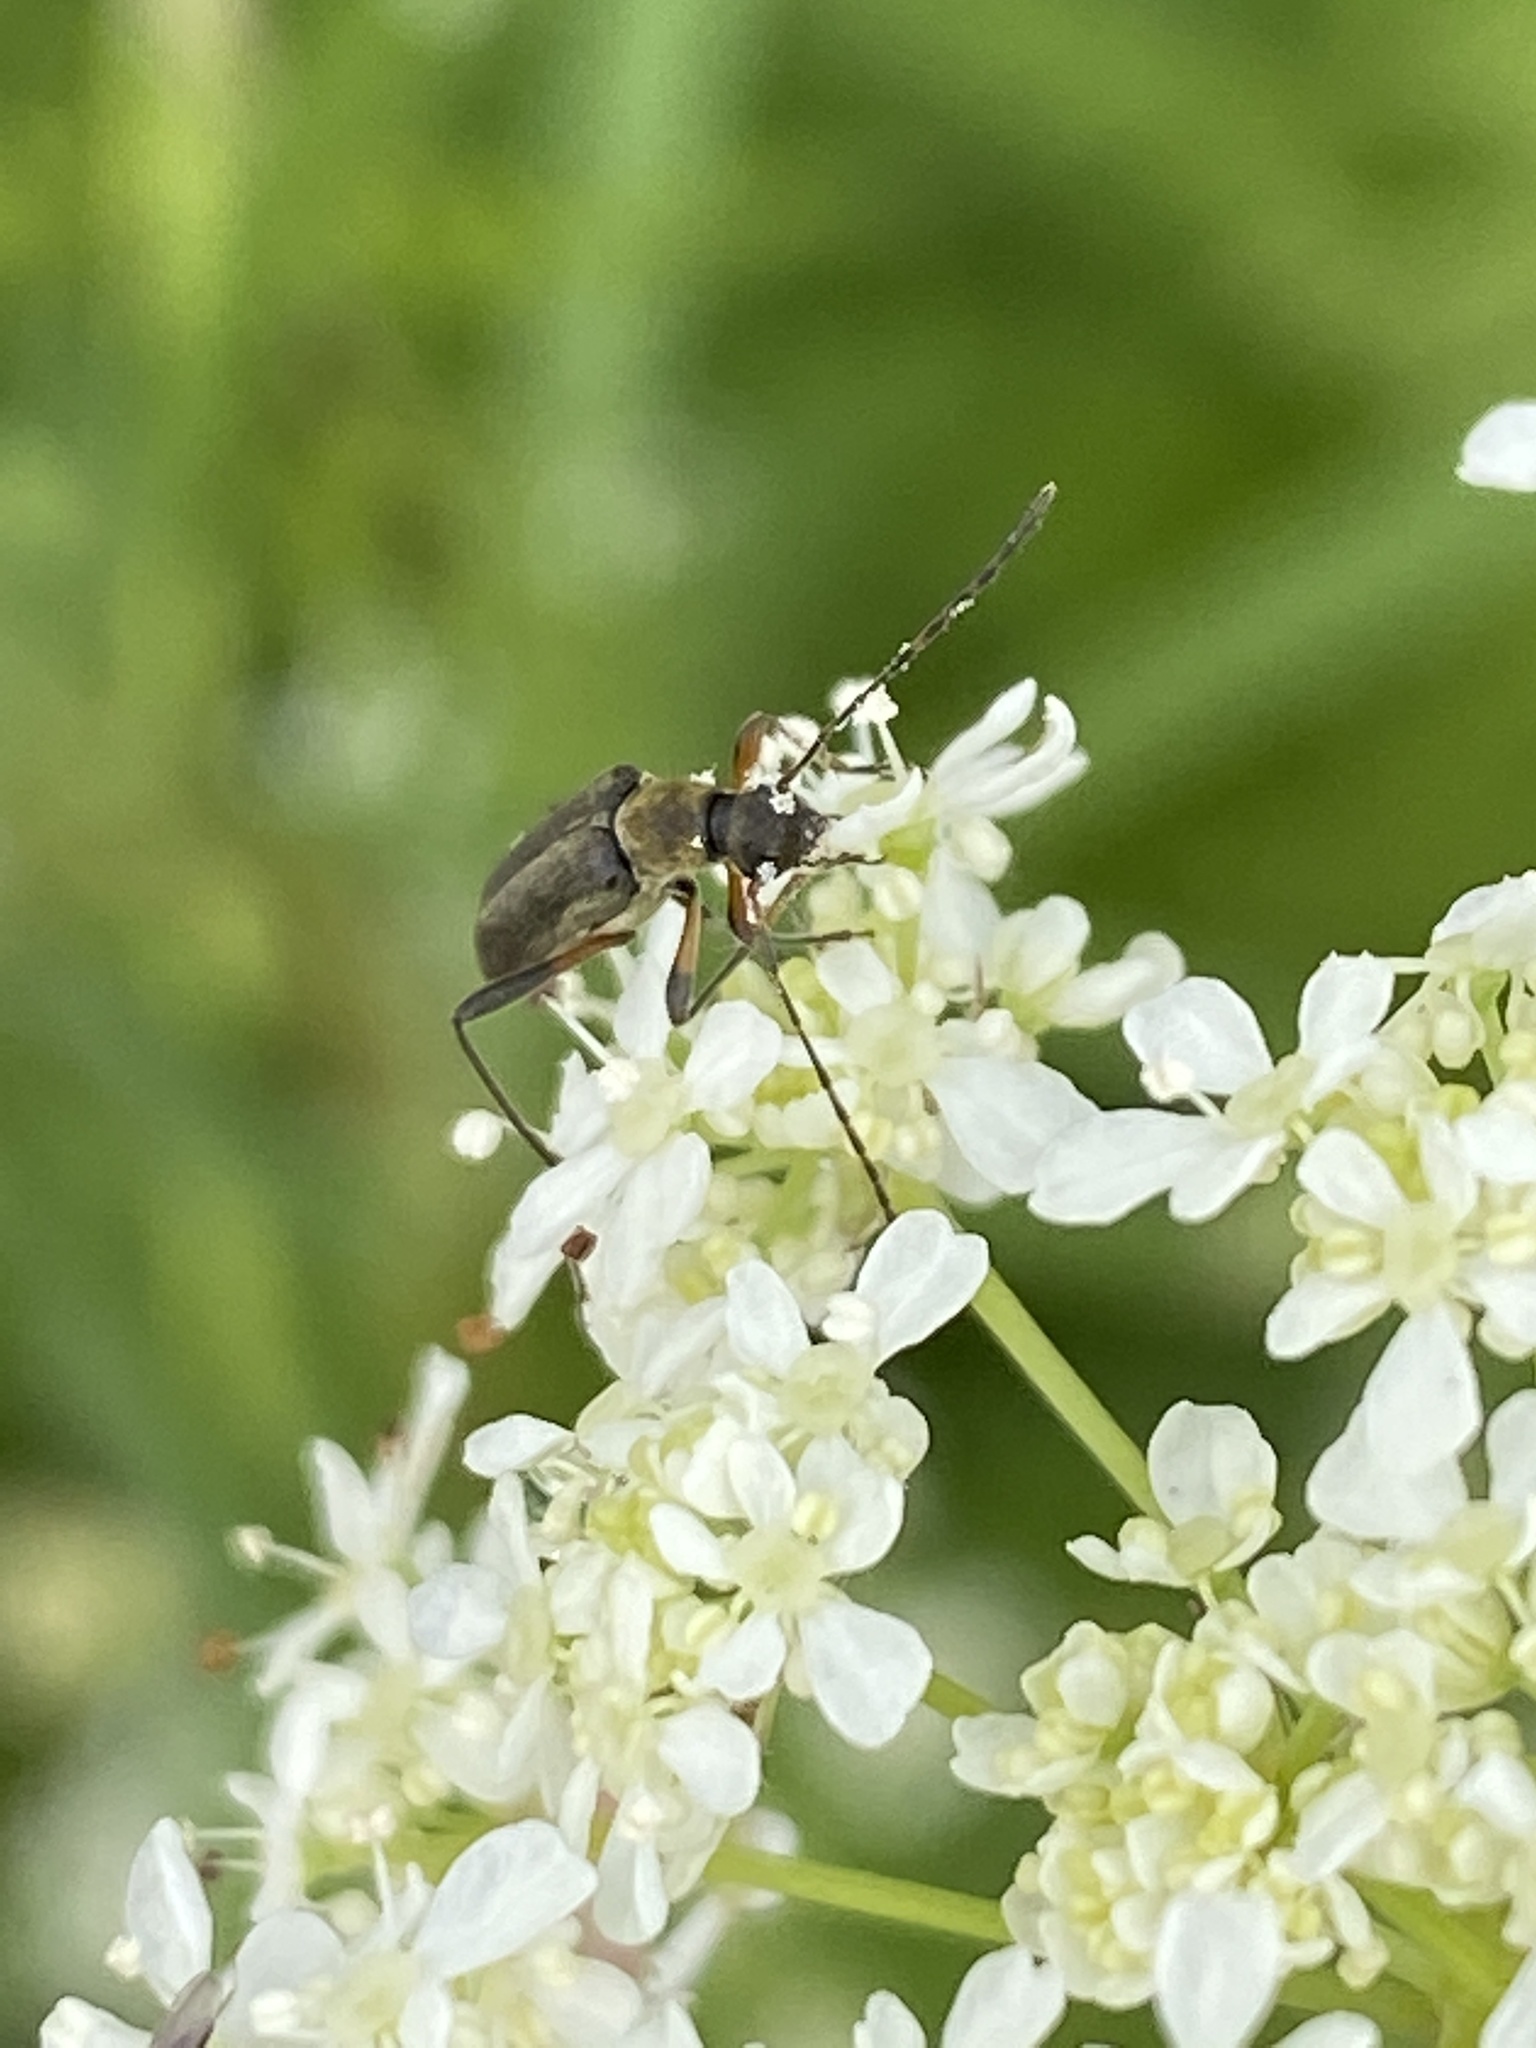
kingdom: Animalia
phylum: Arthropoda
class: Insecta
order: Coleoptera
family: Cerambycidae
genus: Grammoptera
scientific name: Grammoptera ruficornis
